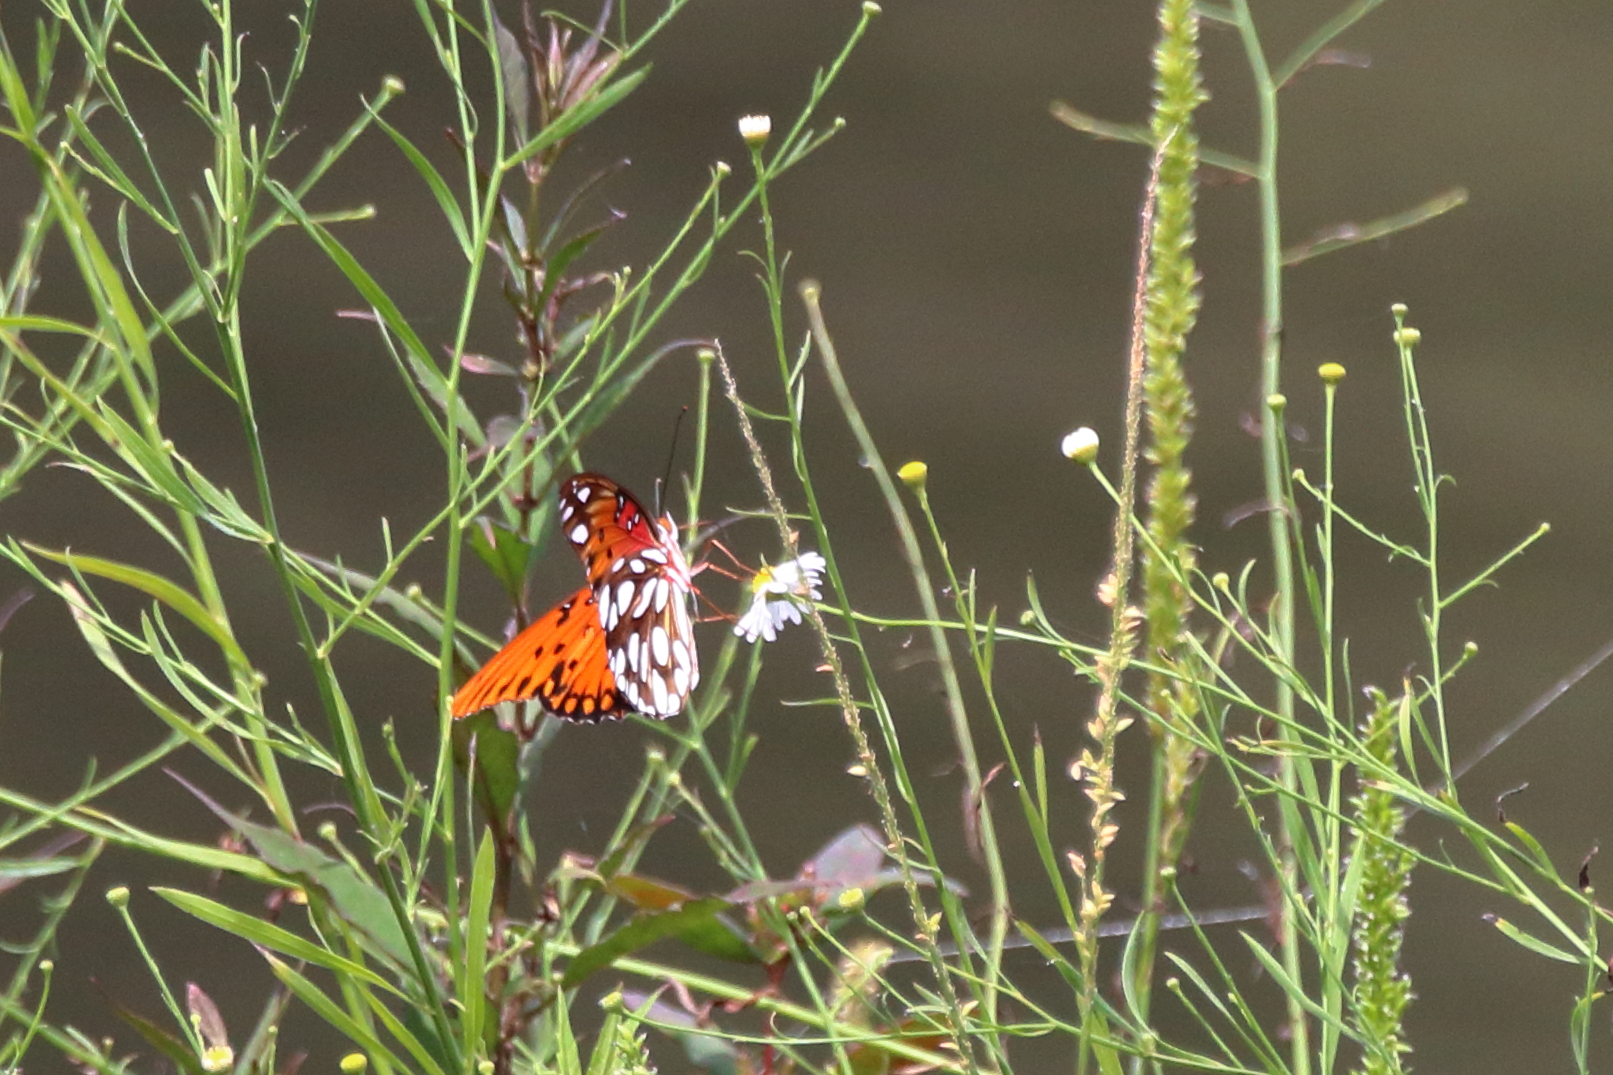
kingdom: Animalia
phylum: Arthropoda
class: Insecta
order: Lepidoptera
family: Nymphalidae
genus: Dione
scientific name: Dione vanillae
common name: Gulf fritillary
